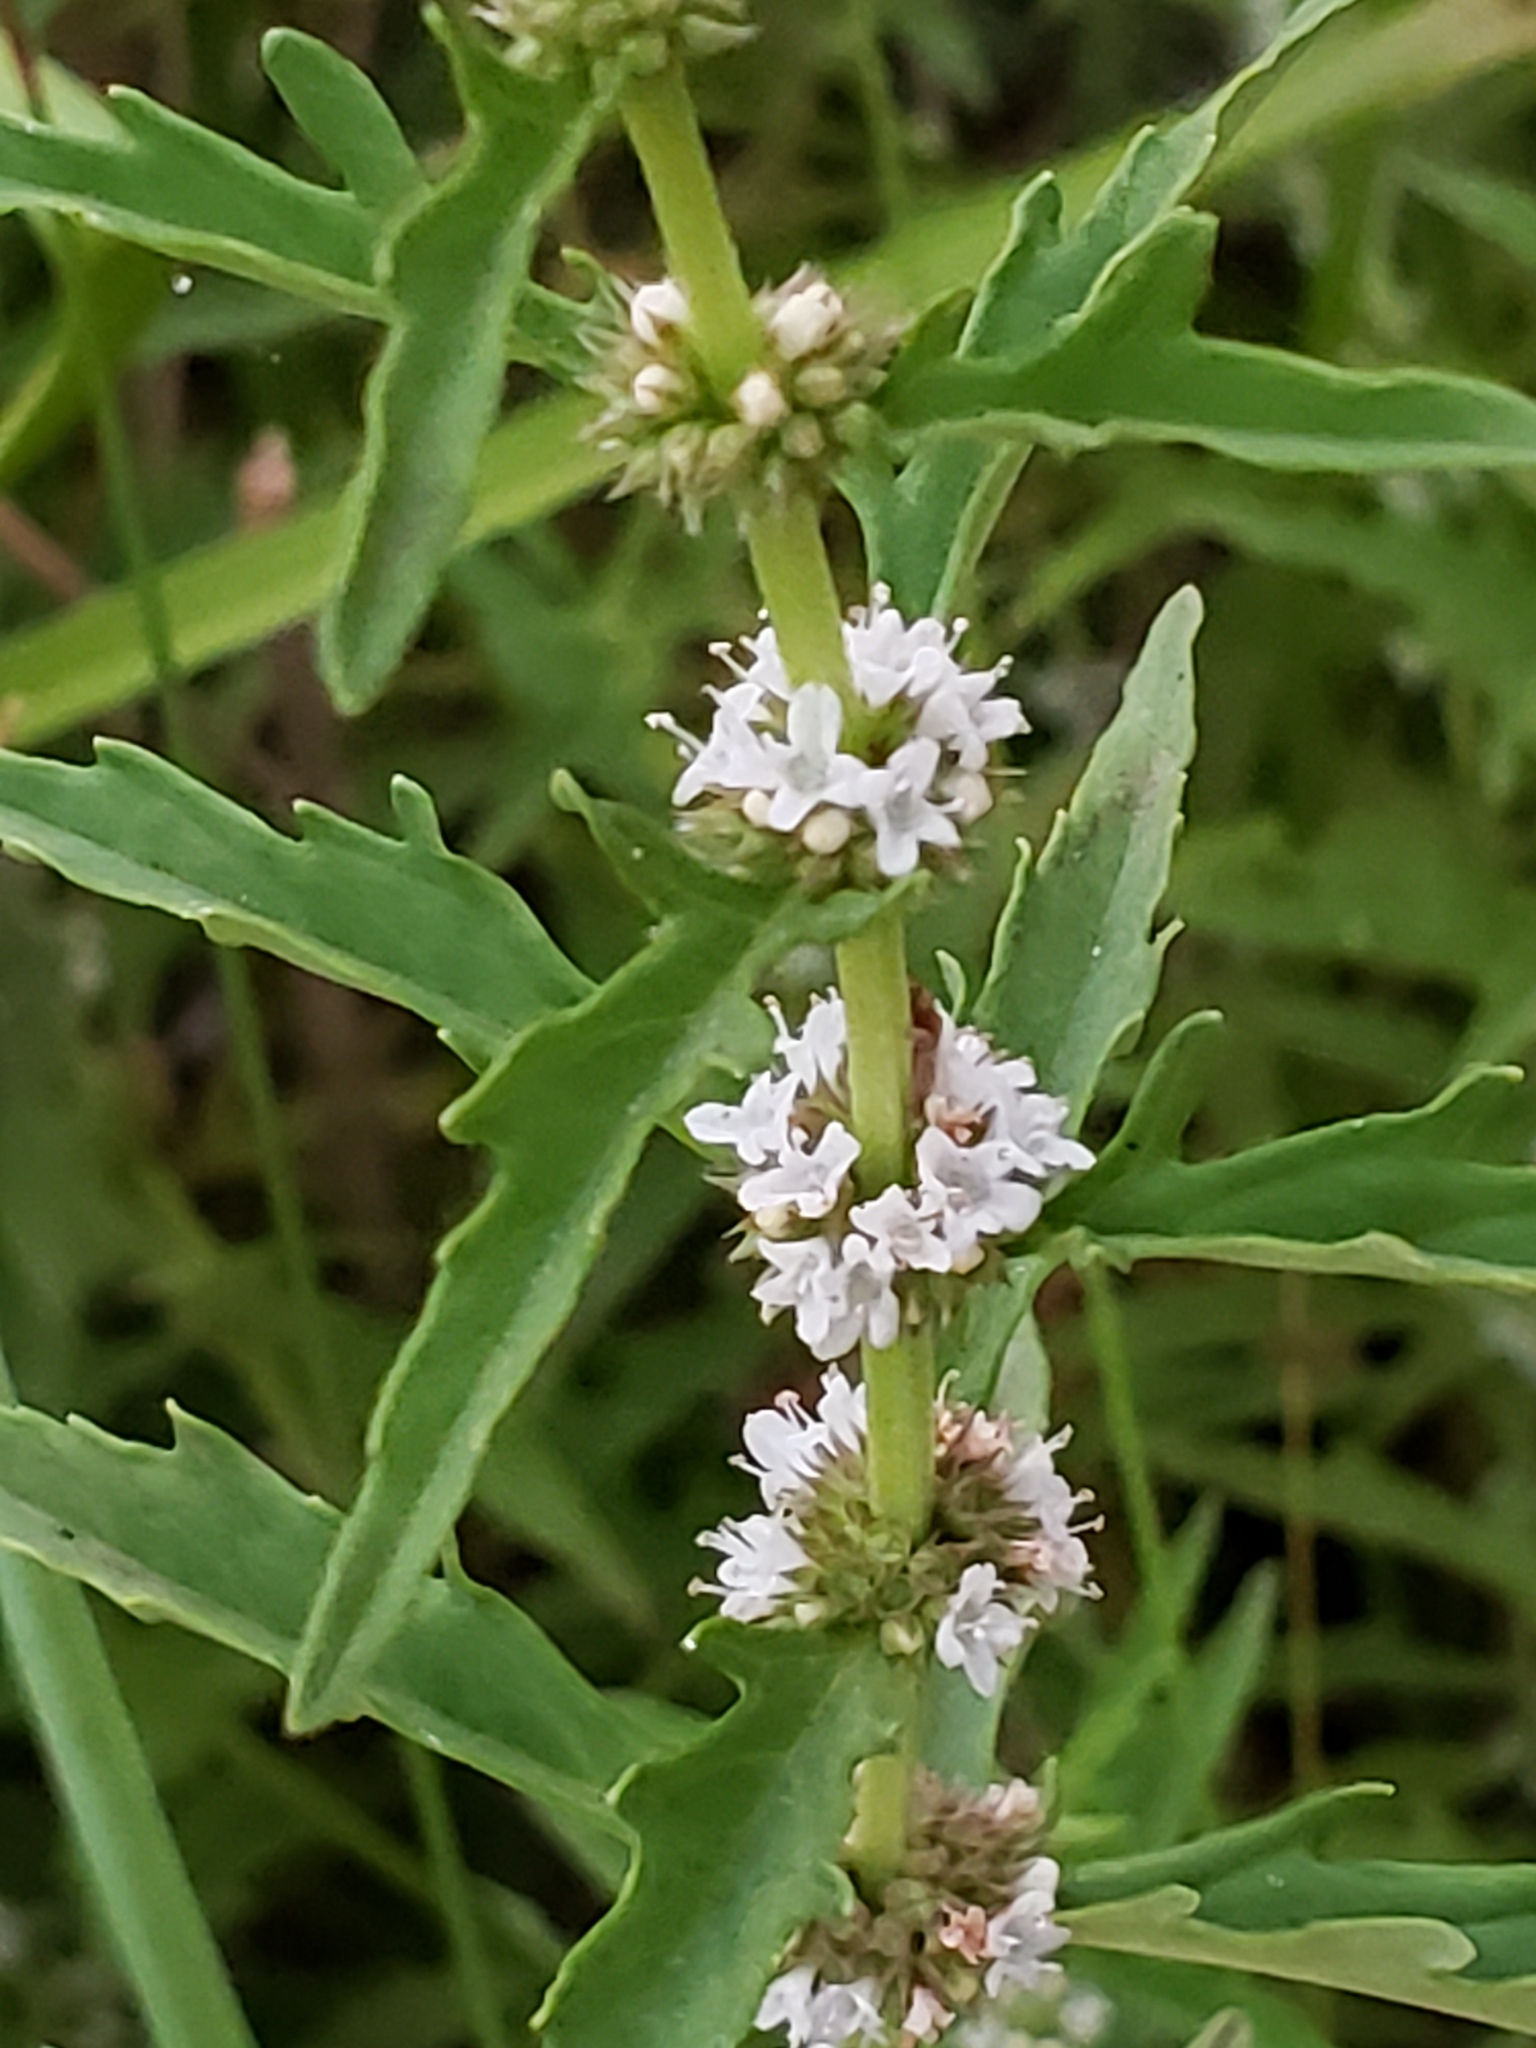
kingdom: Plantae
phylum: Tracheophyta
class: Magnoliopsida
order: Lamiales
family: Lamiaceae
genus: Lycopus
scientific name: Lycopus americanus
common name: American bugleweed
